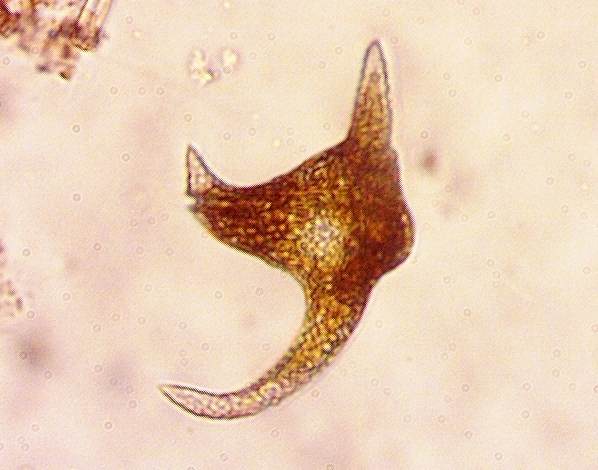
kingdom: Chromista
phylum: Myzozoa
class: Dinophyceae
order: Gonyaulacales
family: Ceratiaceae
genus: Ceratium
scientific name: Ceratium carolinianum
